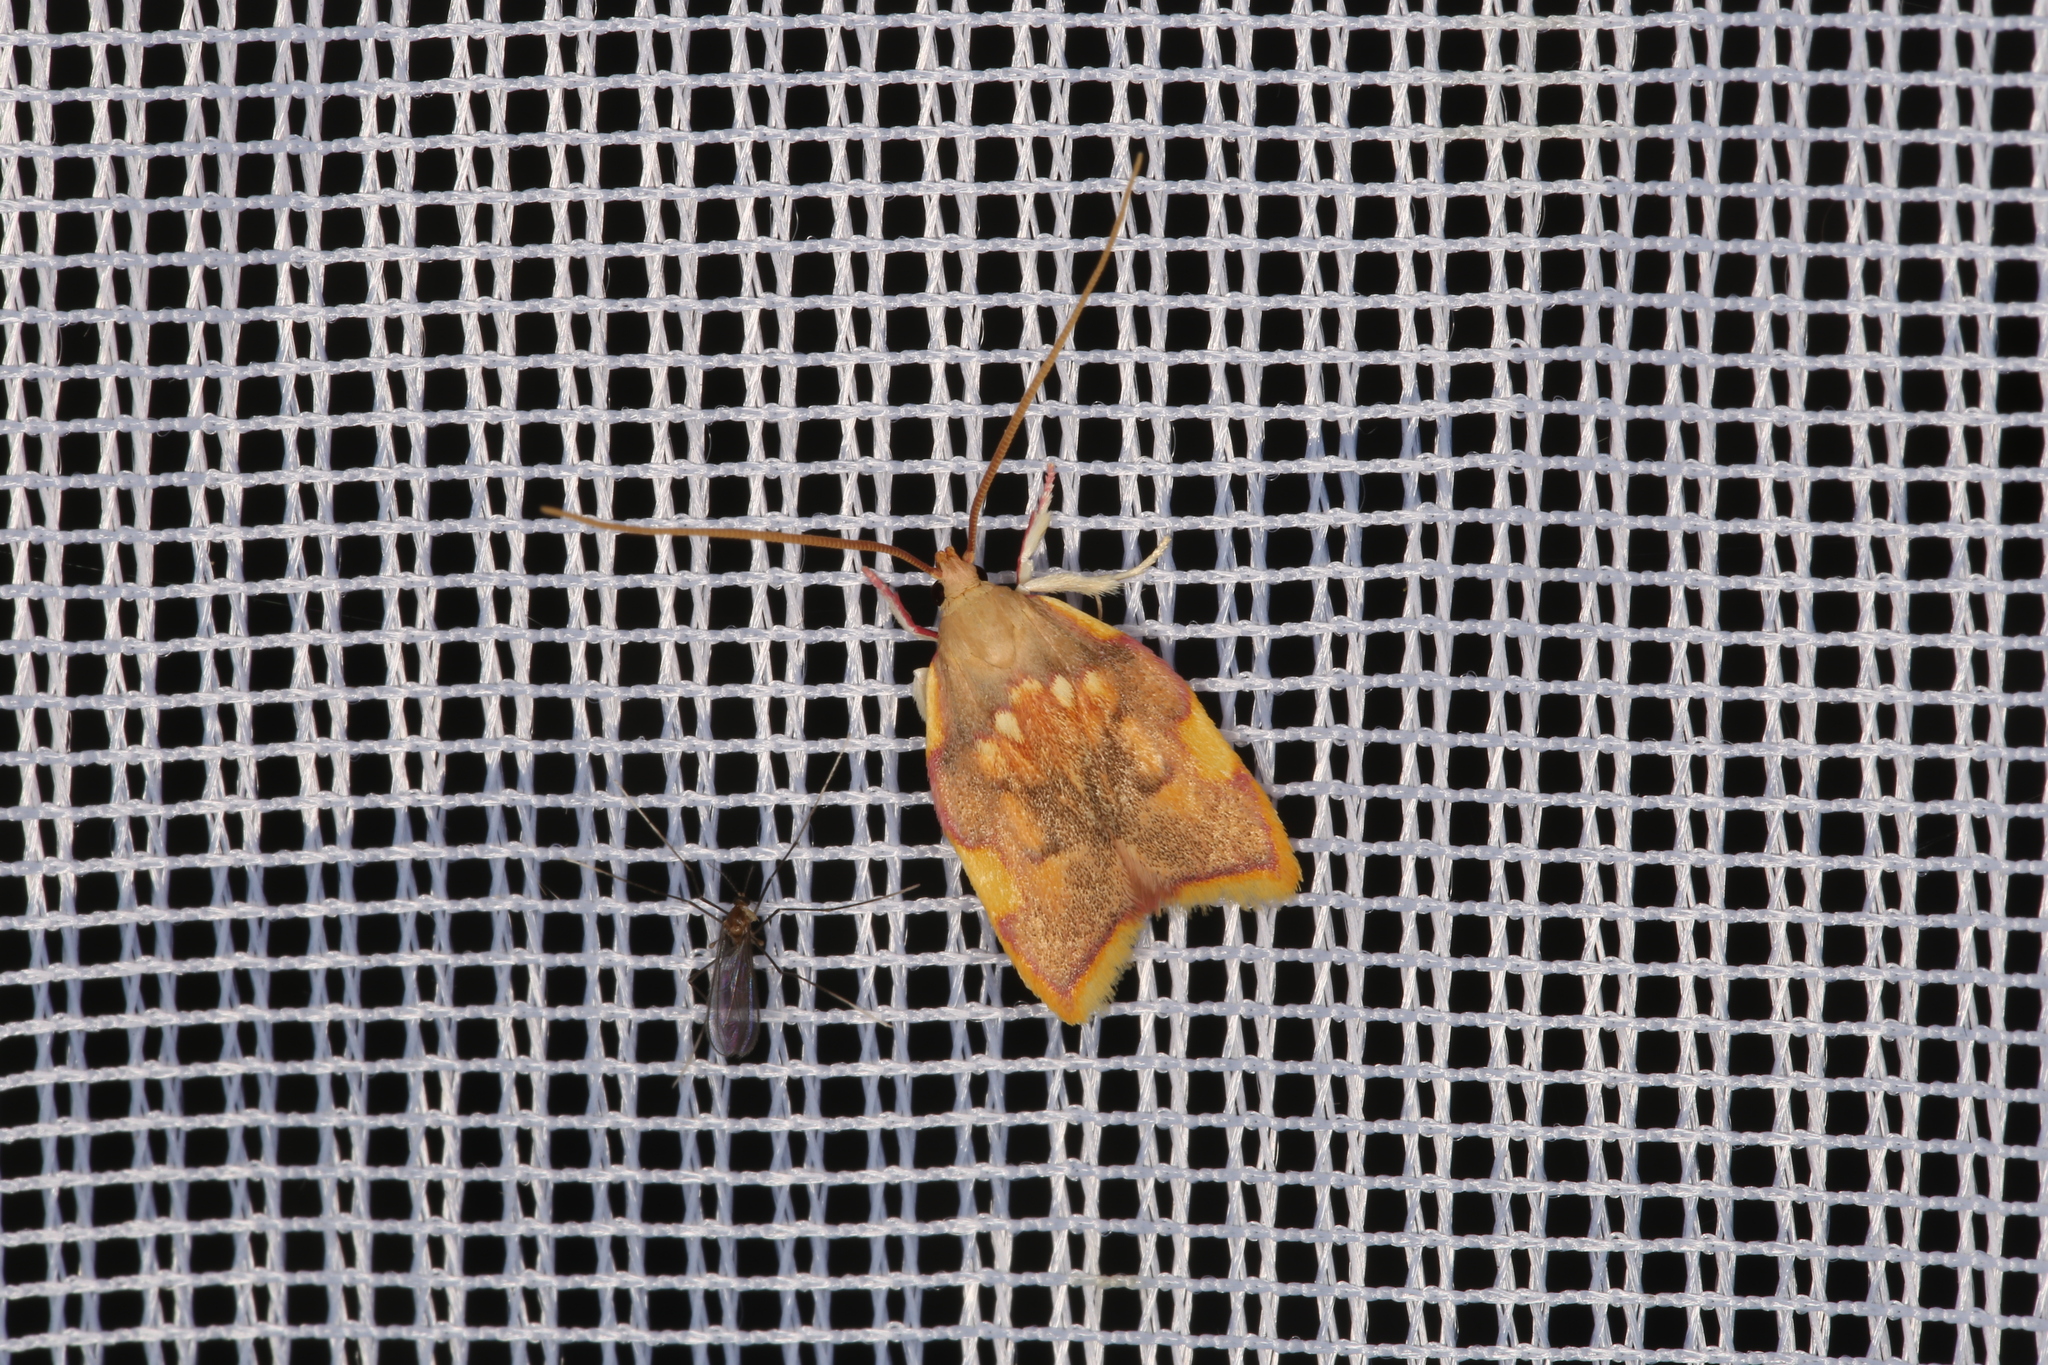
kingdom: Animalia
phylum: Arthropoda
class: Insecta
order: Lepidoptera
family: Peleopodidae
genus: Carcina
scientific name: Carcina quercana
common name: Moth
